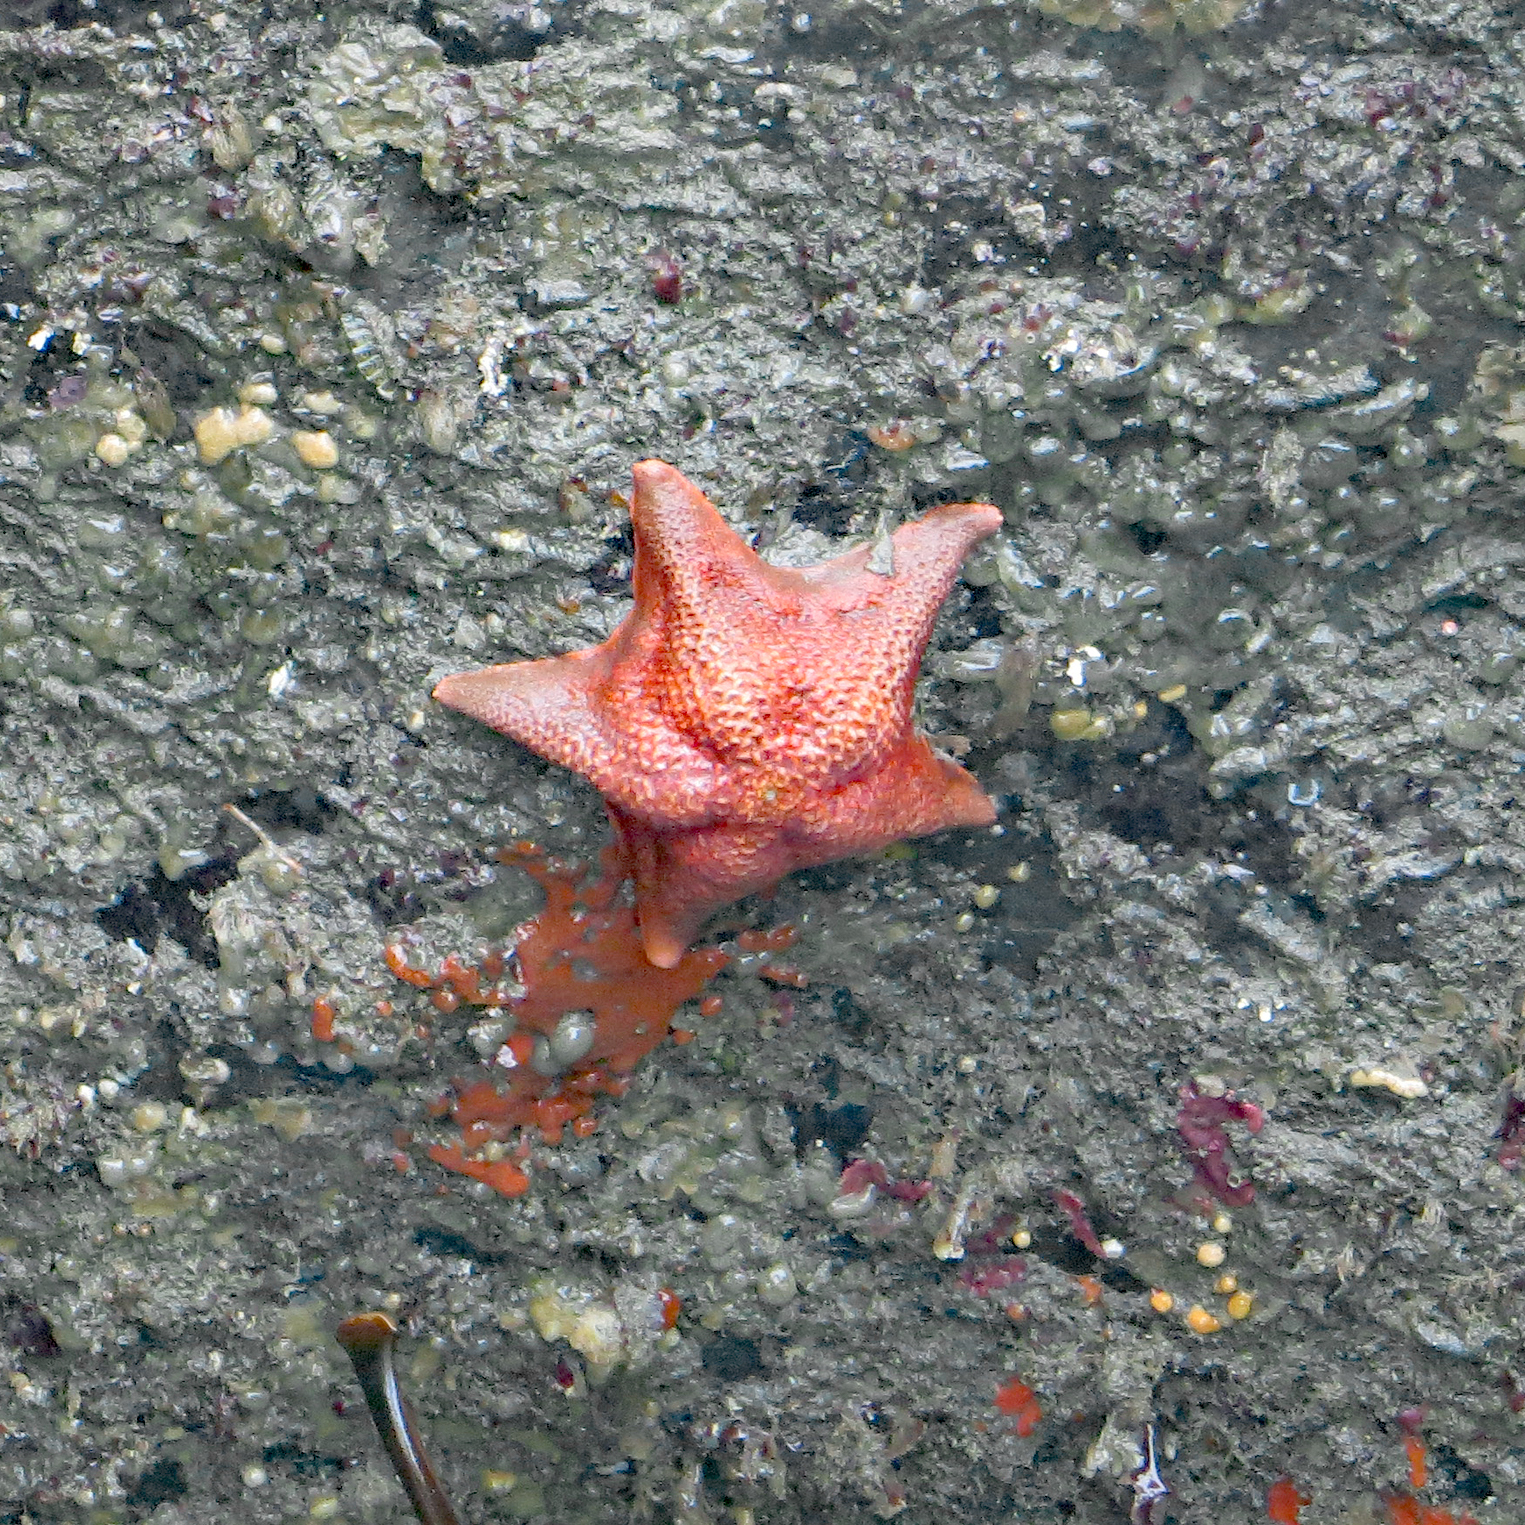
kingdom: Animalia
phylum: Echinodermata
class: Asteroidea
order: Valvatida
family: Asterinidae
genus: Patiria
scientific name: Patiria miniata
